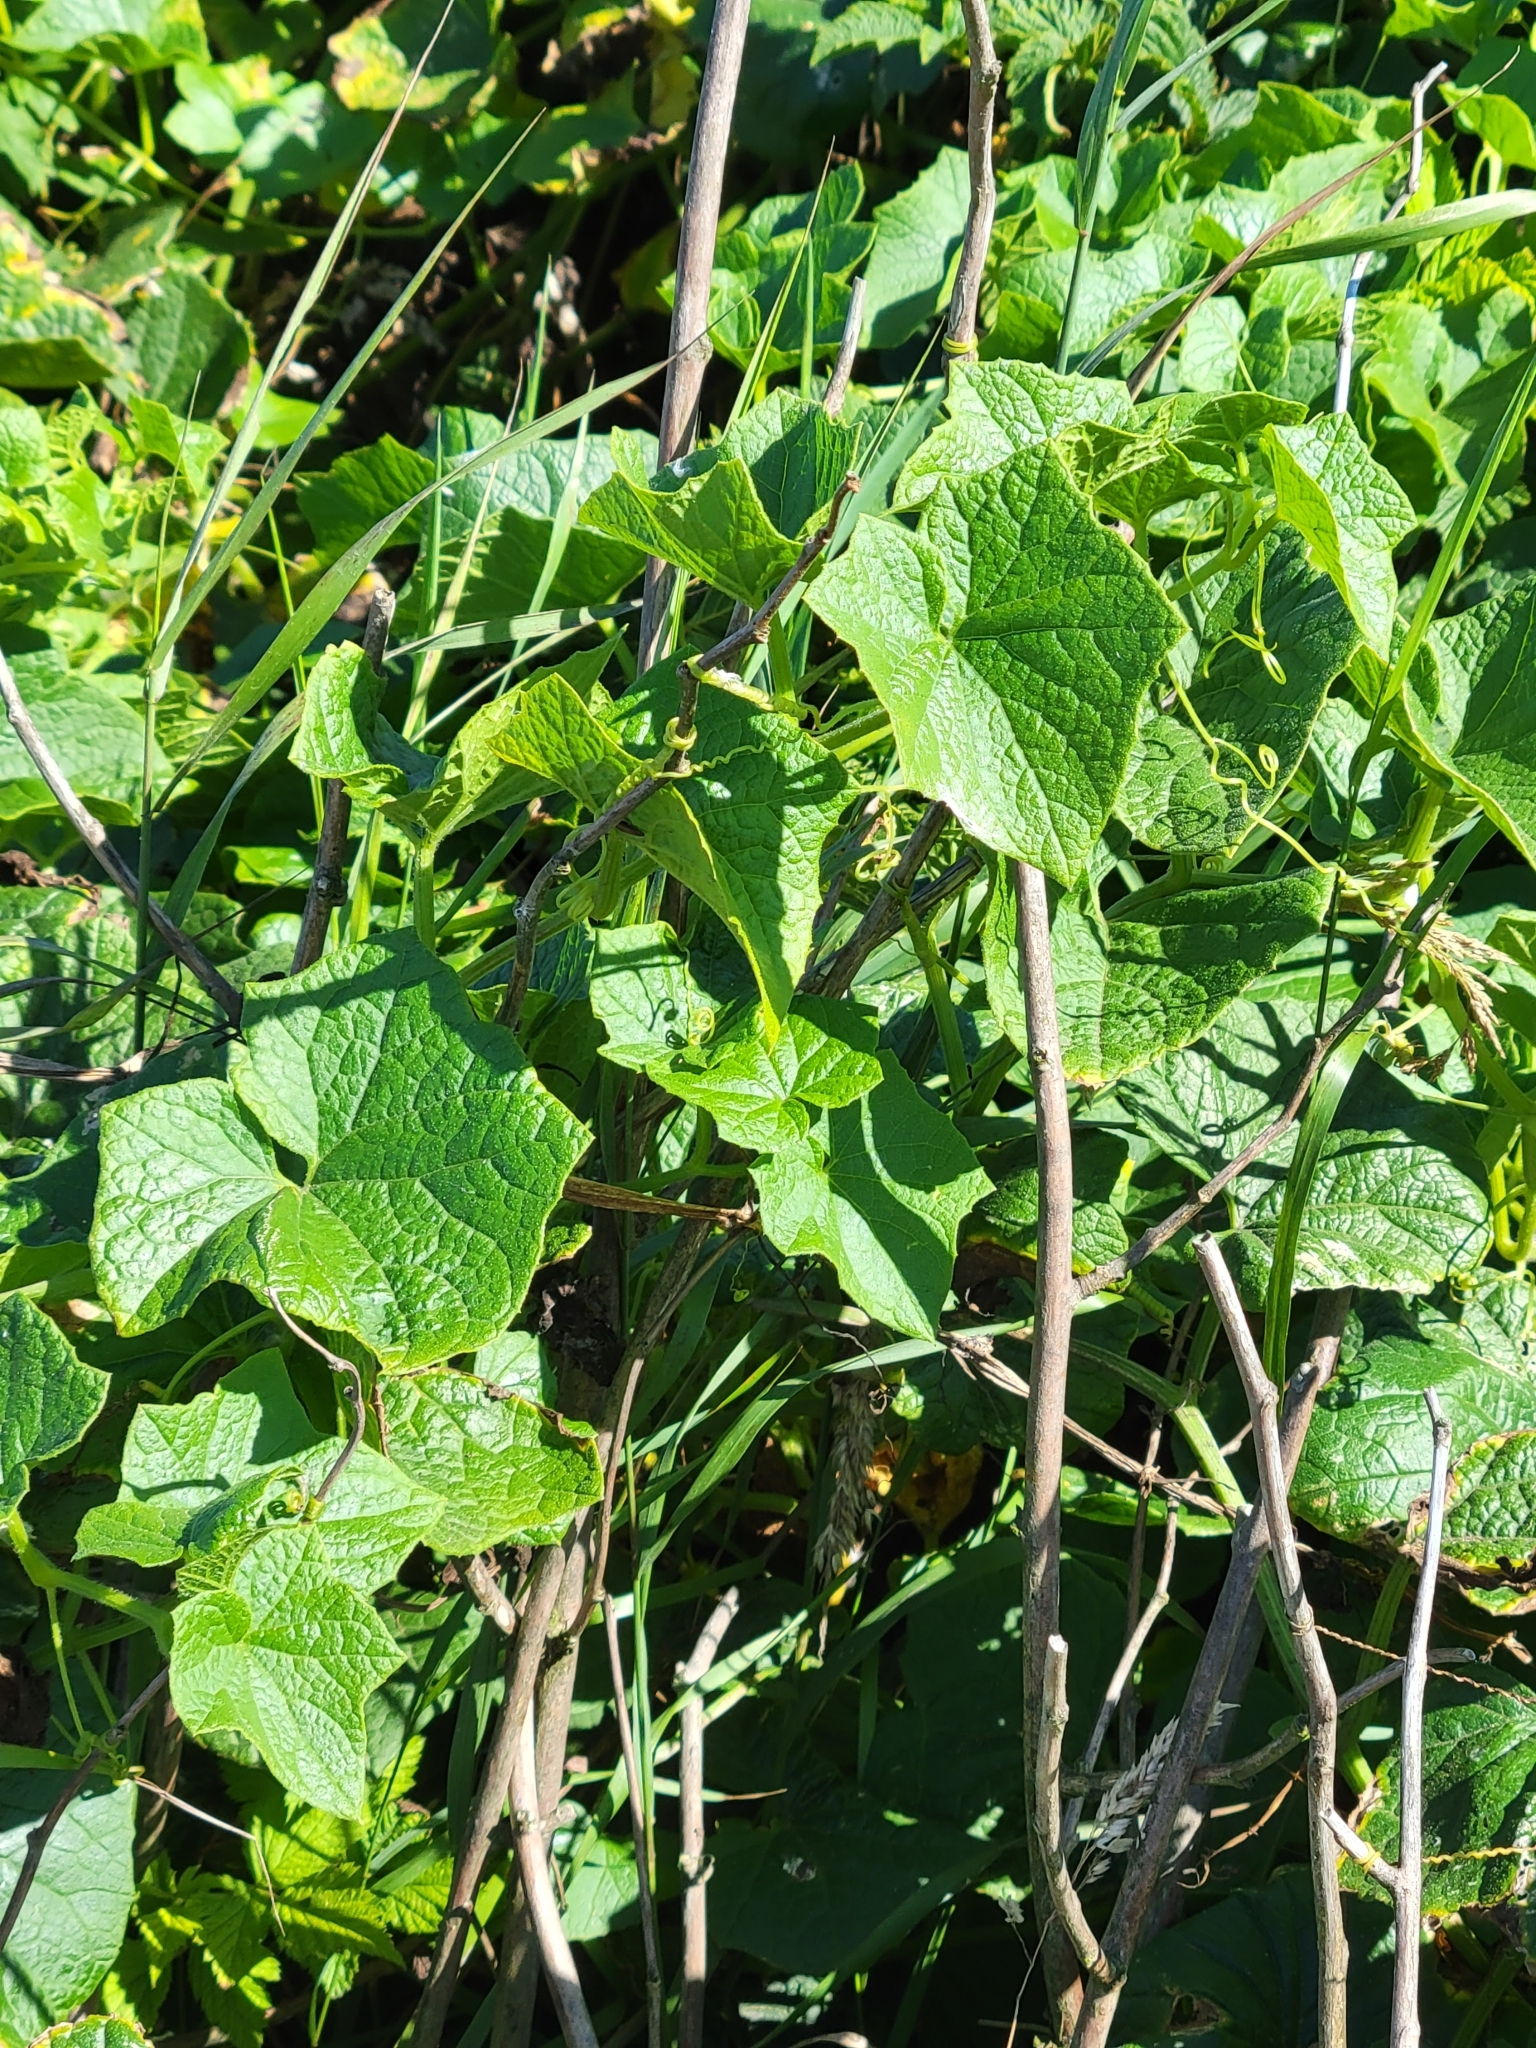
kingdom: Plantae
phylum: Tracheophyta
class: Magnoliopsida
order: Cucurbitales
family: Cucurbitaceae
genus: Marah
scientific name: Marah oregana
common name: Coastal manroot
